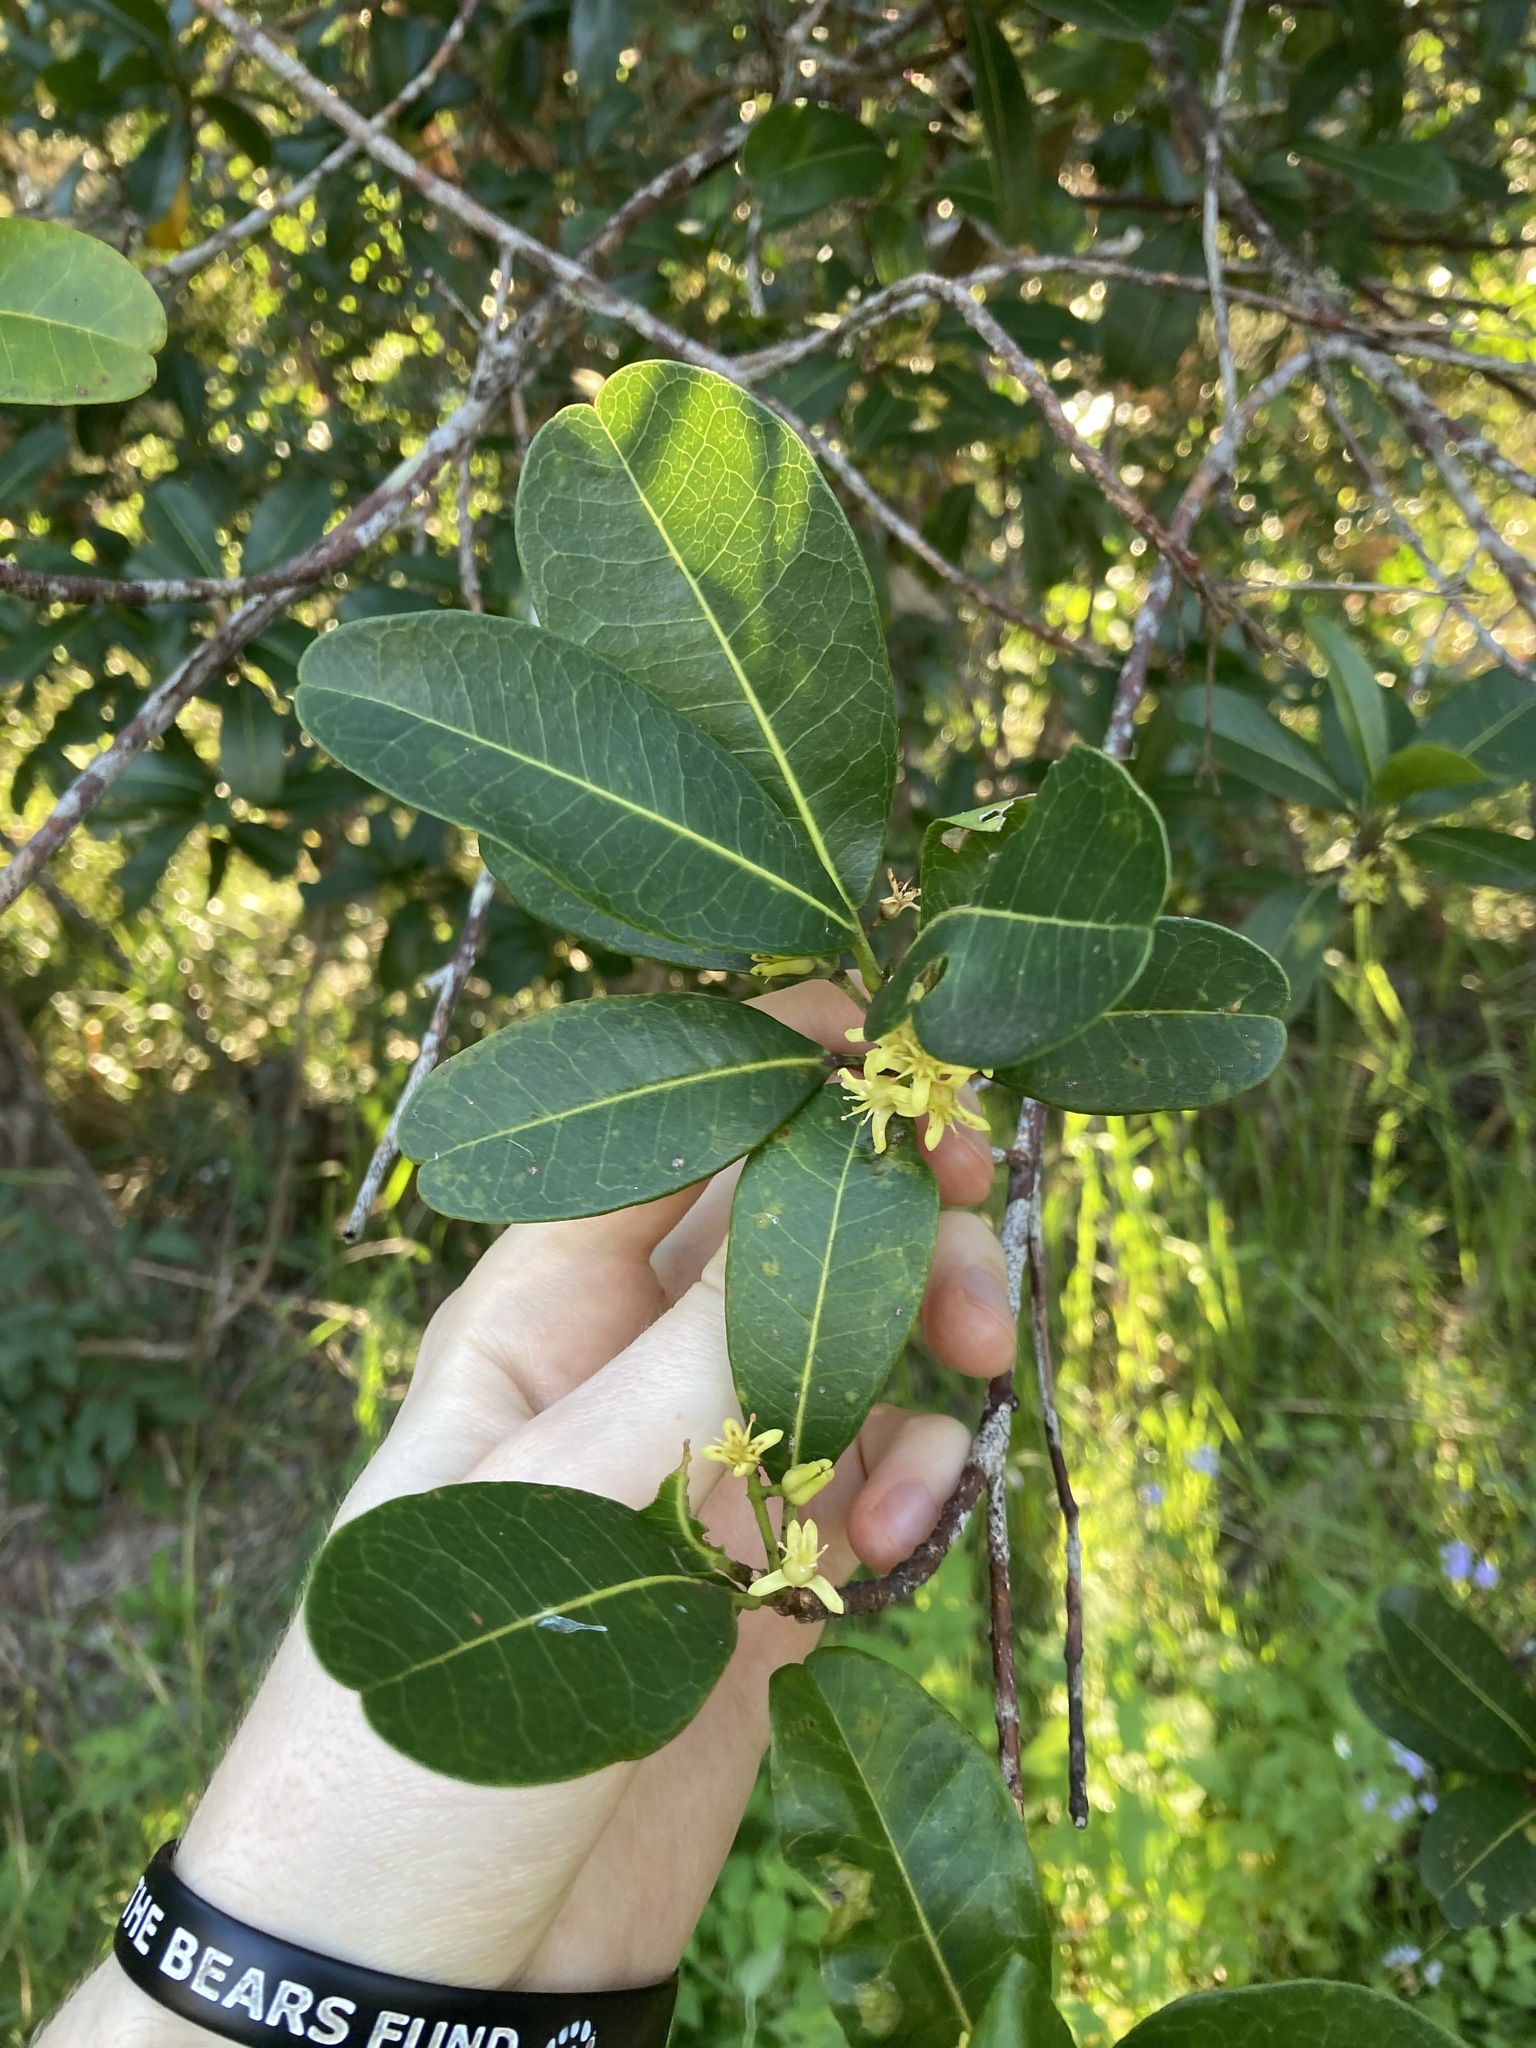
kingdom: Plantae
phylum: Tracheophyta
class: Magnoliopsida
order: Sapindales
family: Rutaceae
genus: Acronychia
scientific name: Acronychia imperforata
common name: Beach acronychia
